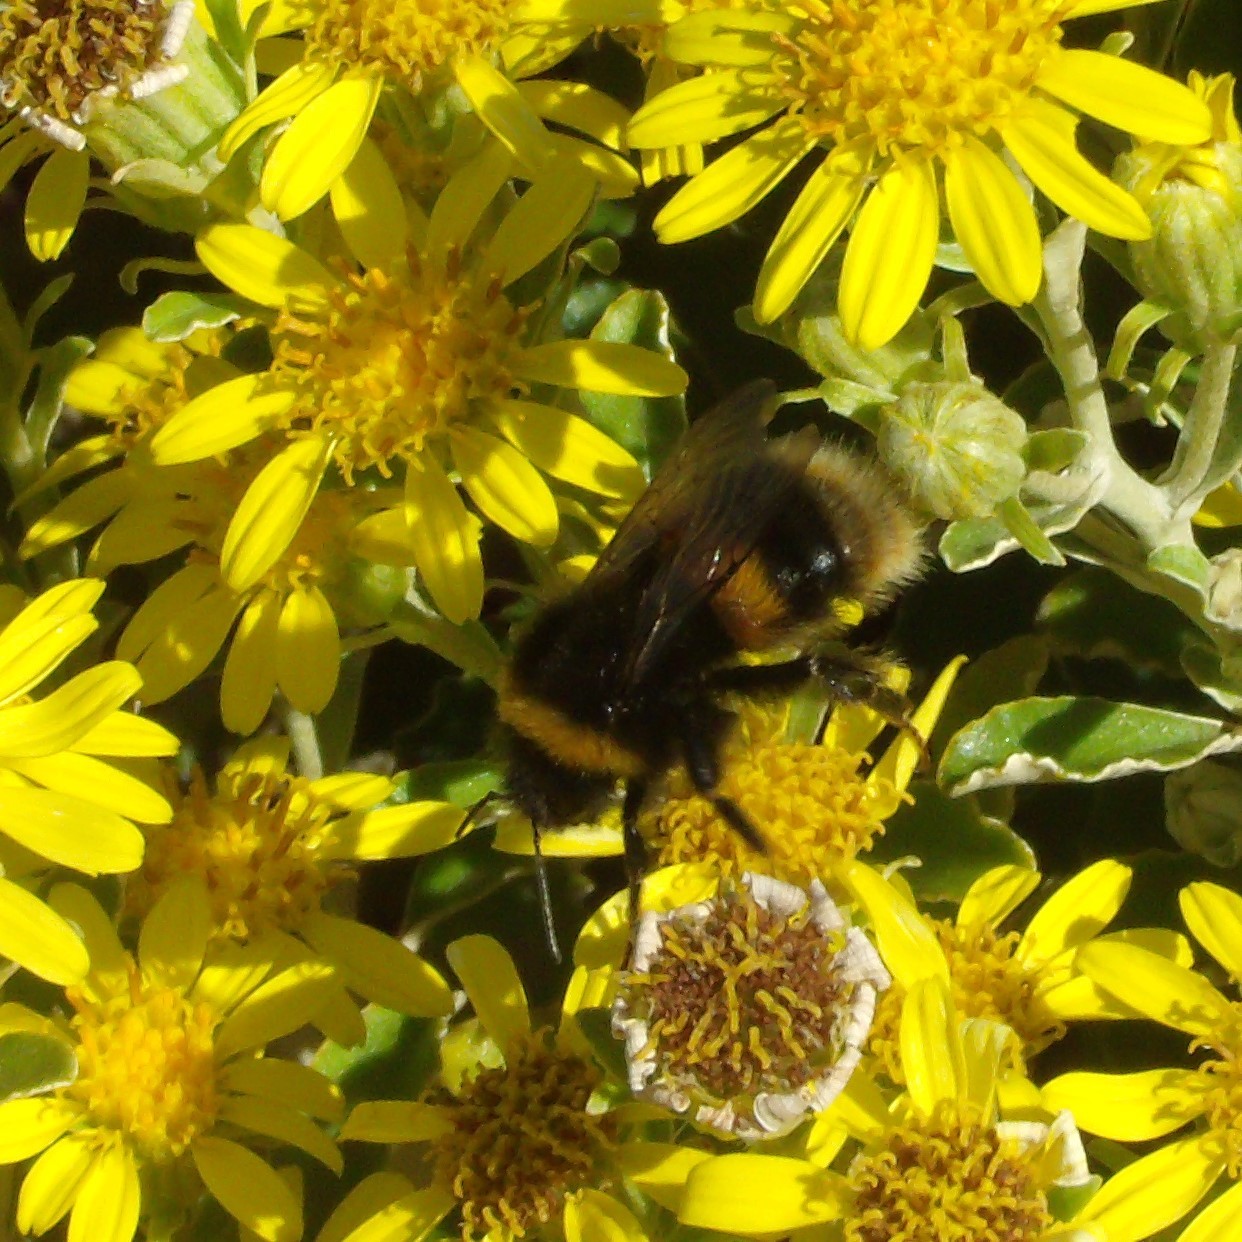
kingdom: Animalia
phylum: Arthropoda
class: Insecta
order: Hymenoptera
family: Apidae
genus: Bombus
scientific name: Bombus terrestris
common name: Buff-tailed bumblebee
